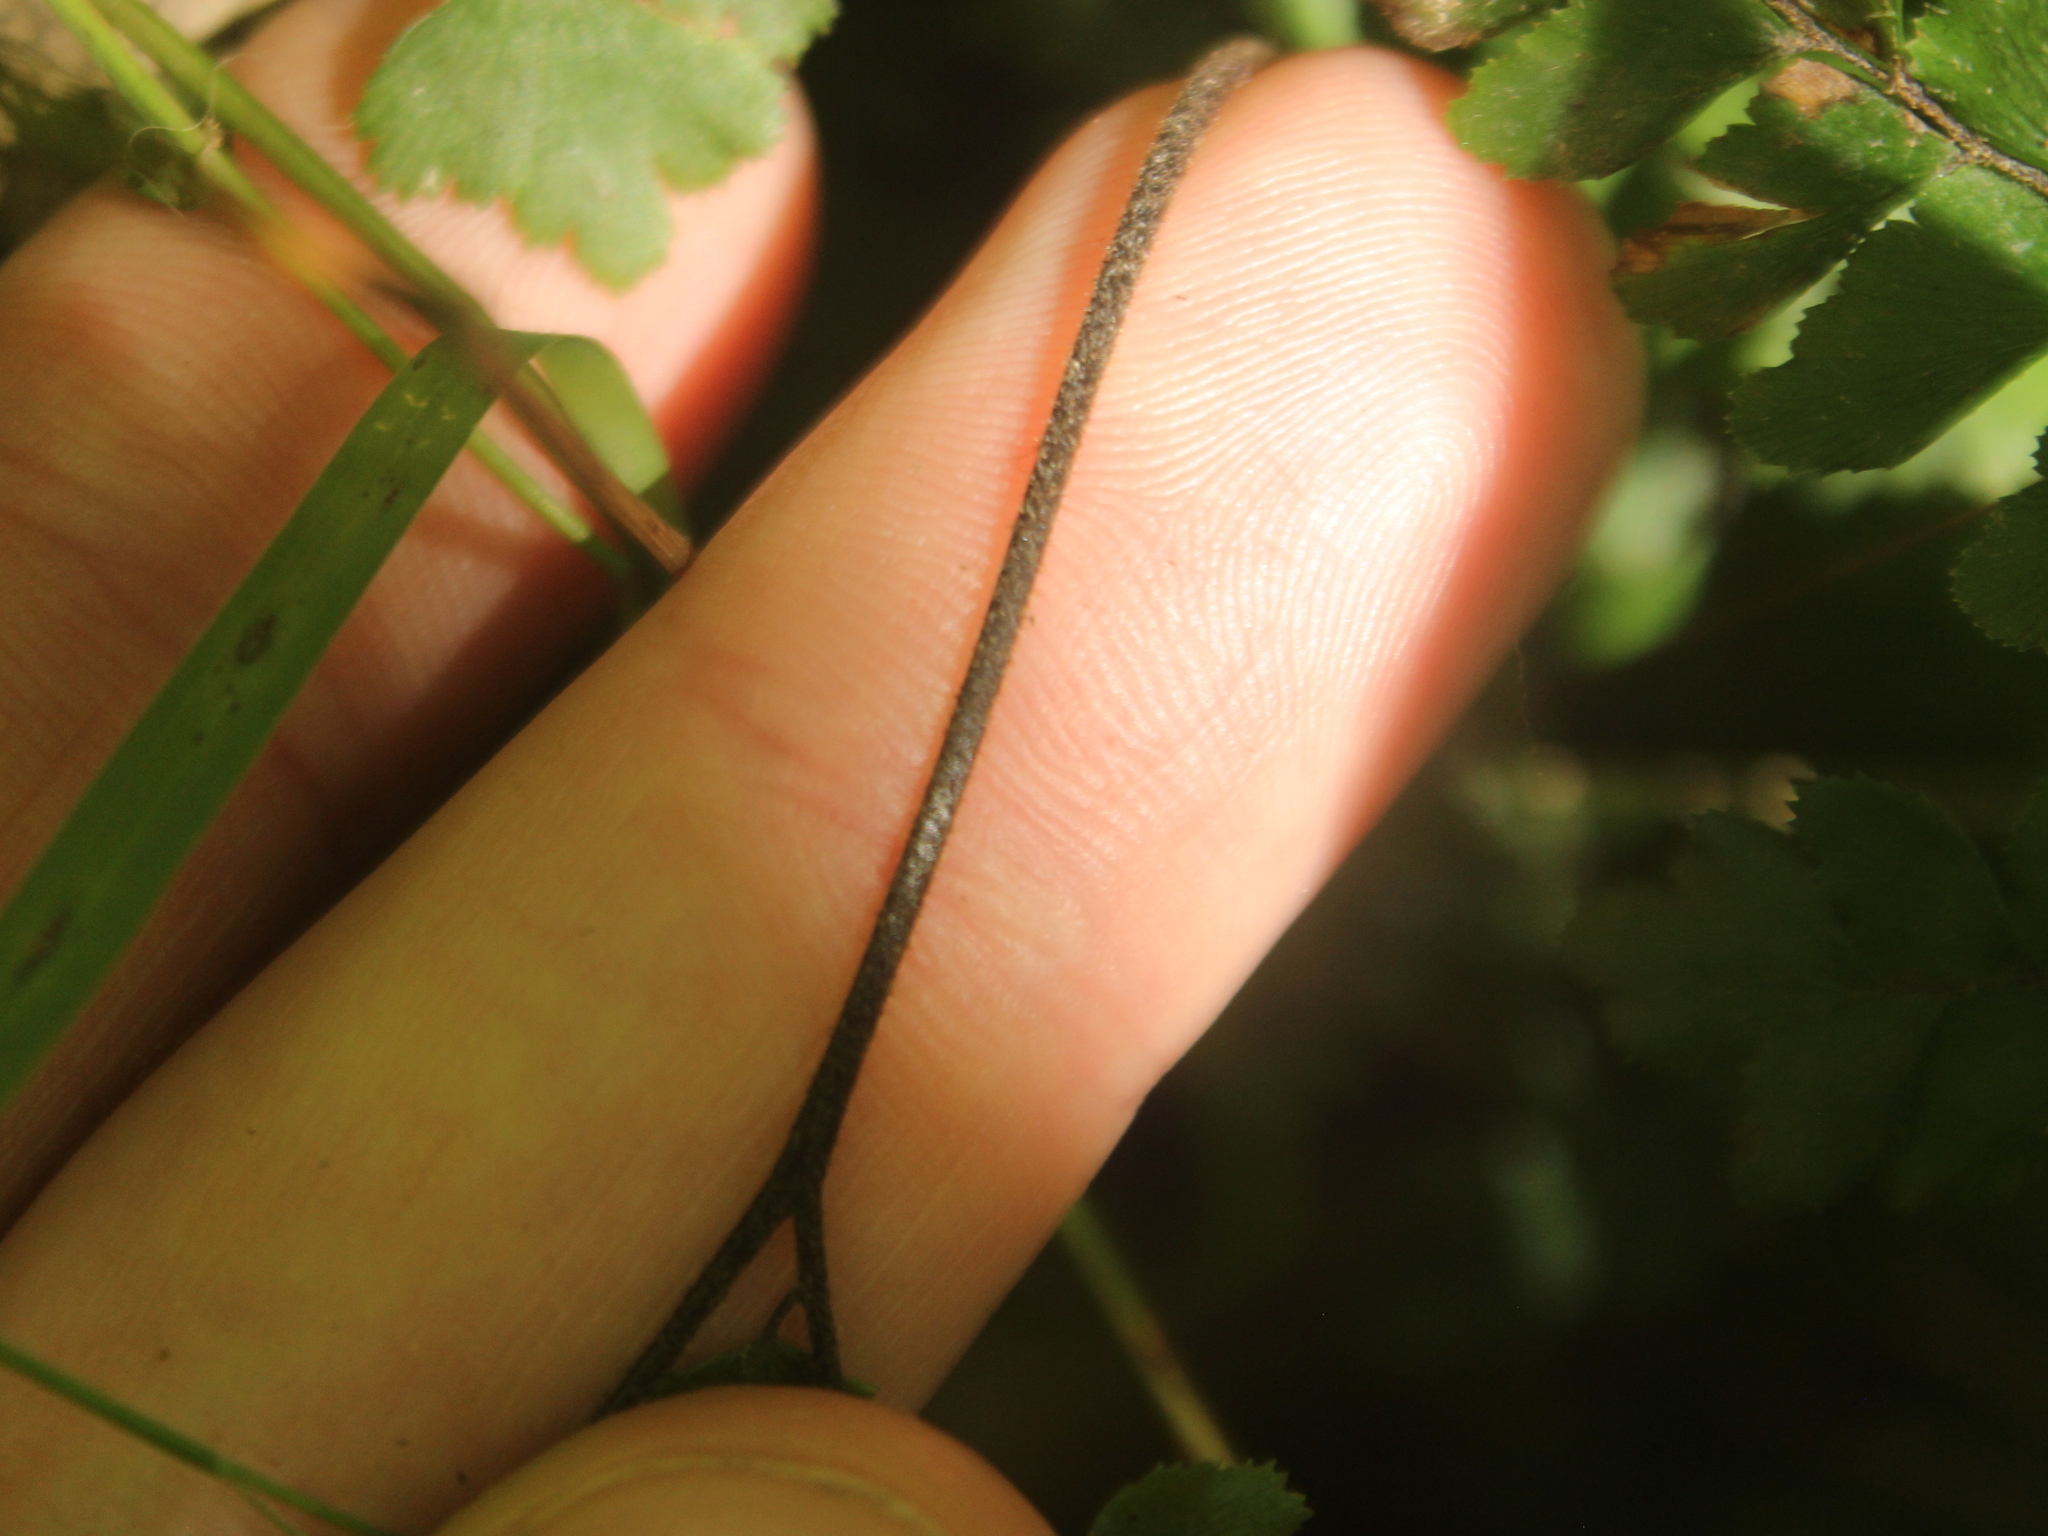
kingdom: Plantae
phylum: Tracheophyta
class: Polypodiopsida
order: Polypodiales
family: Pteridaceae
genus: Adiantum
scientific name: Adiantum hispidulum
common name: Rough maidenhair
